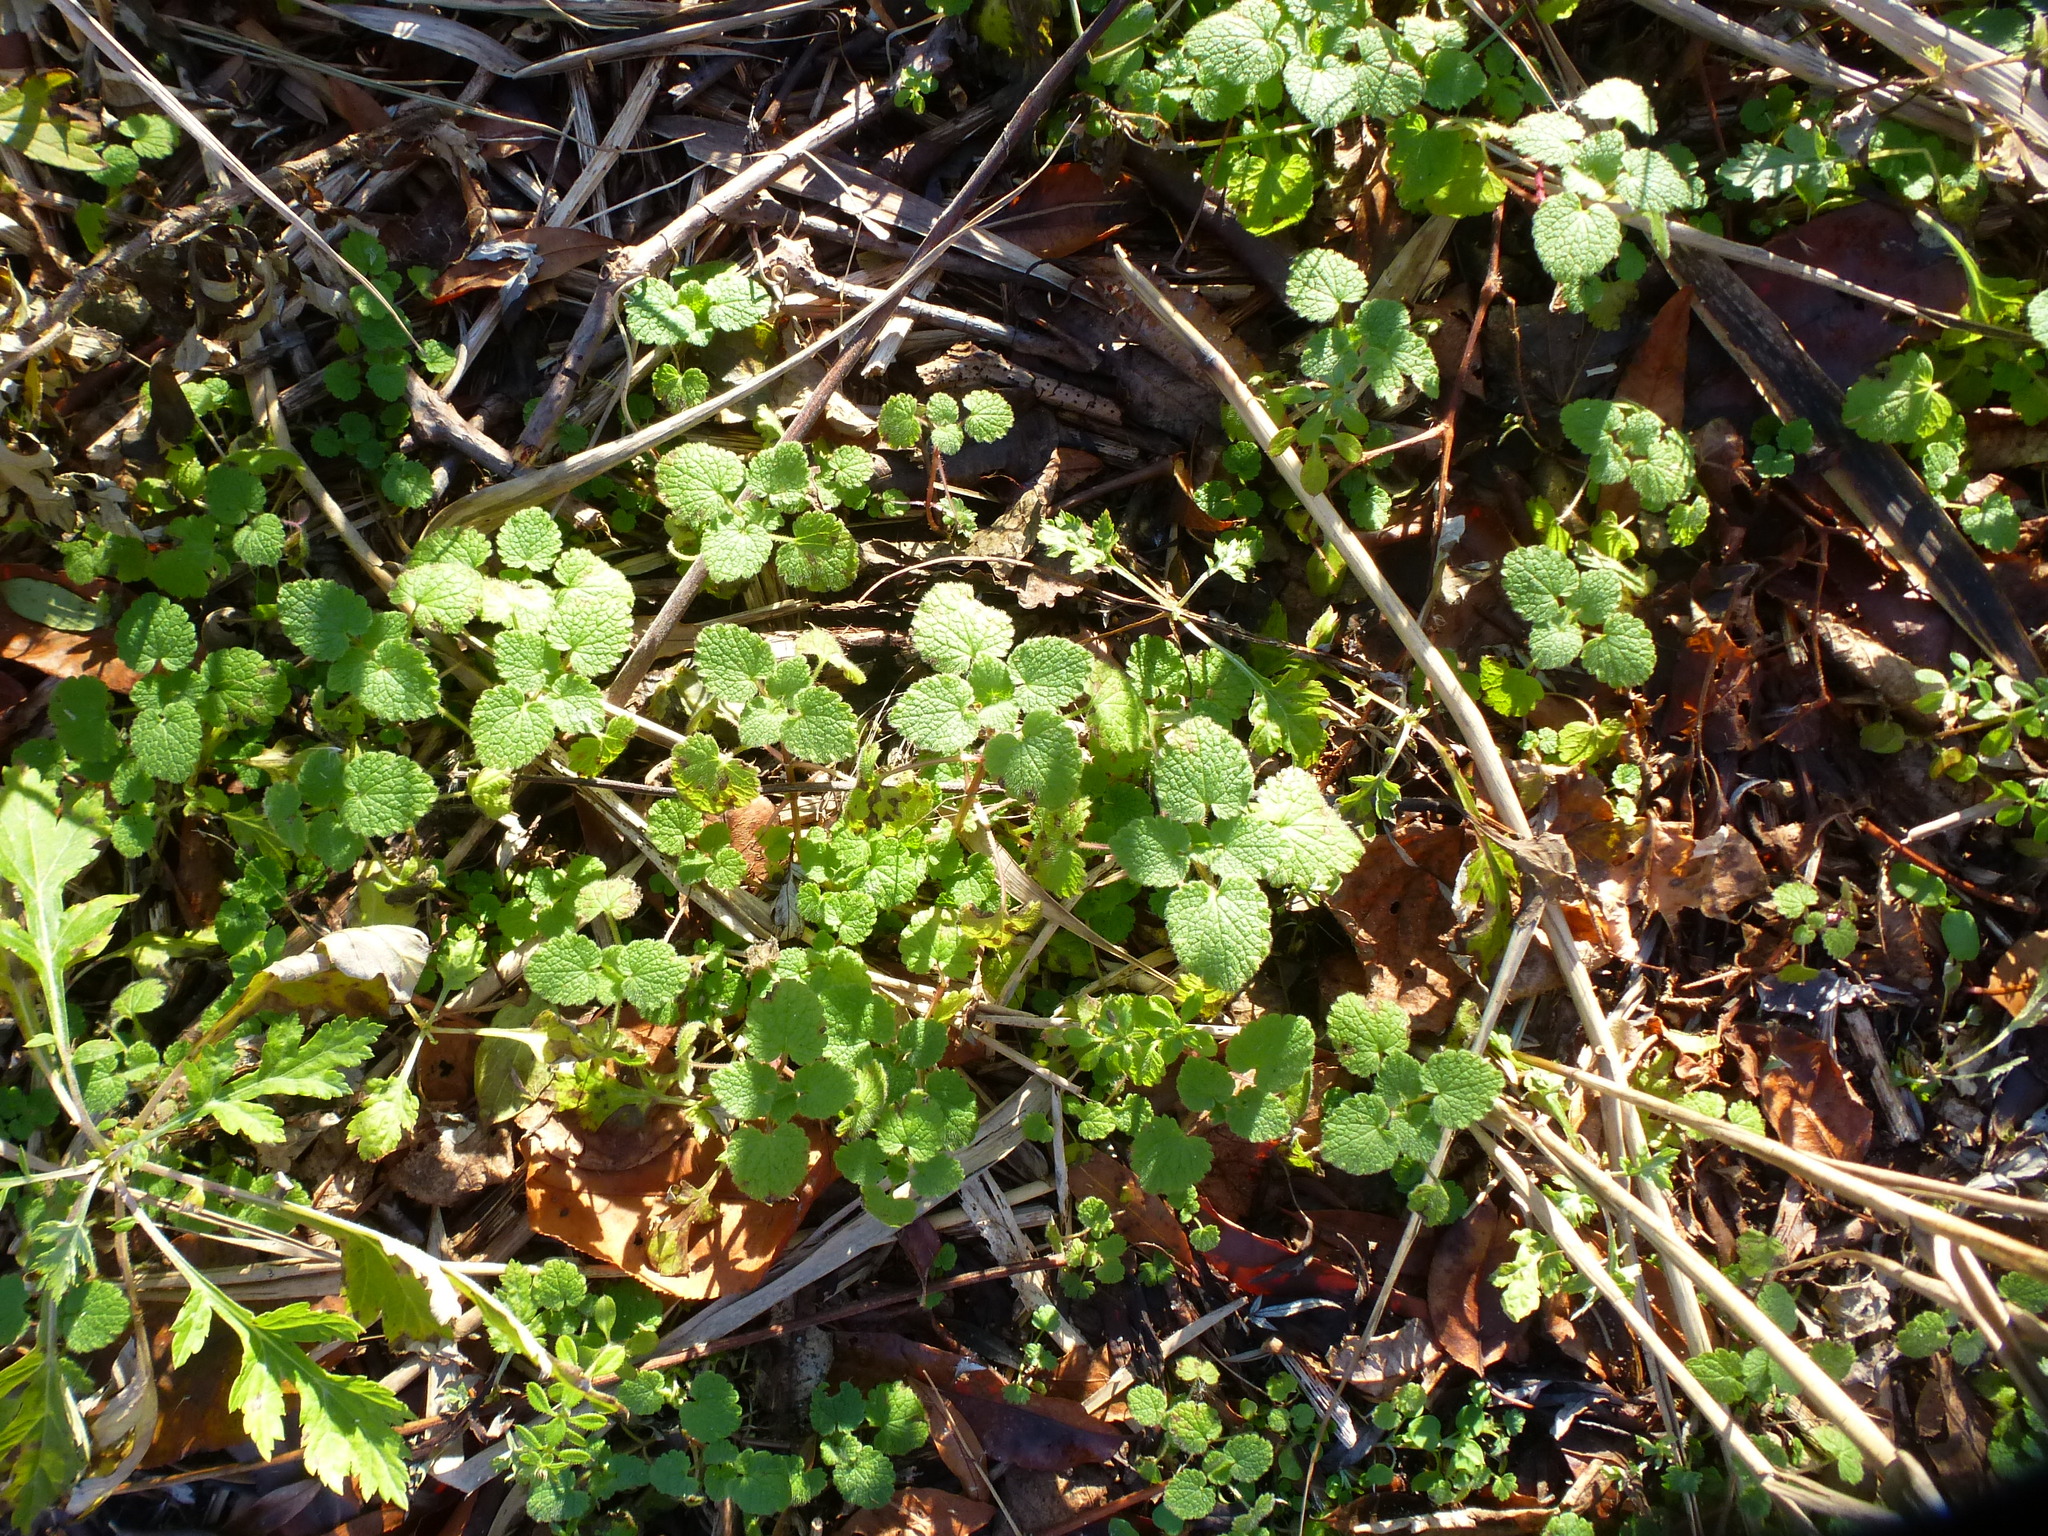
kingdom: Plantae
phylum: Tracheophyta
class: Magnoliopsida
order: Lamiales
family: Lamiaceae
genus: Lamium
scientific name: Lamium purpureum
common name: Red dead-nettle
